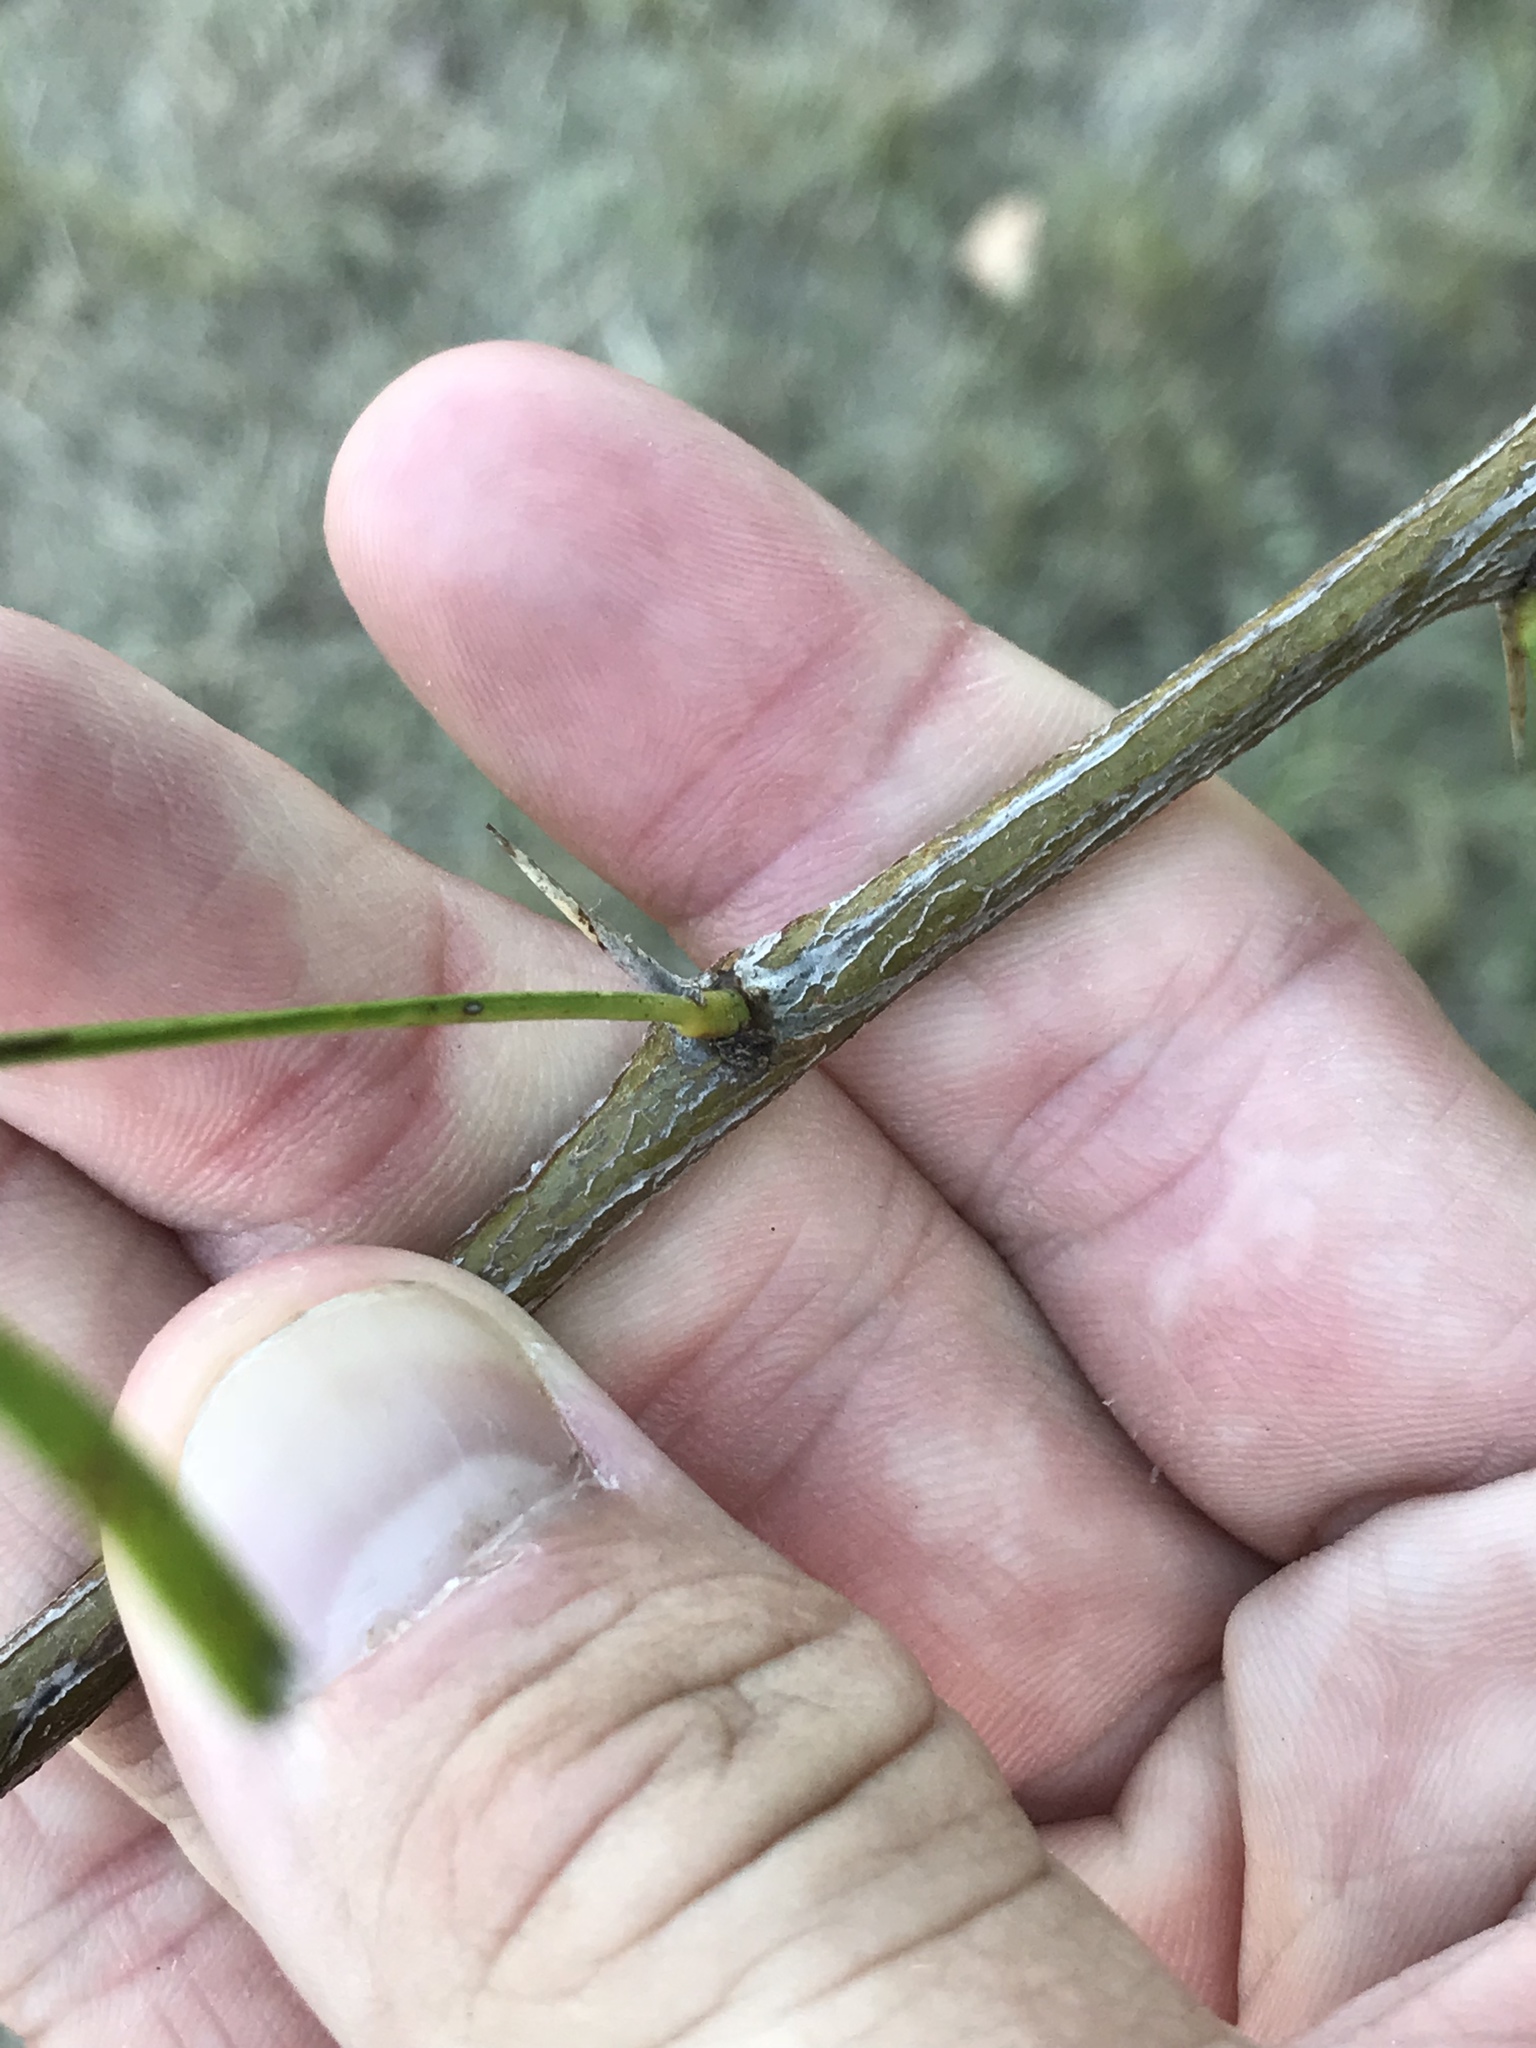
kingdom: Plantae
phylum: Tracheophyta
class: Magnoliopsida
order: Fabales
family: Fabaceae
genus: Prosopis
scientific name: Prosopis glandulosa
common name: Honey mesquite
